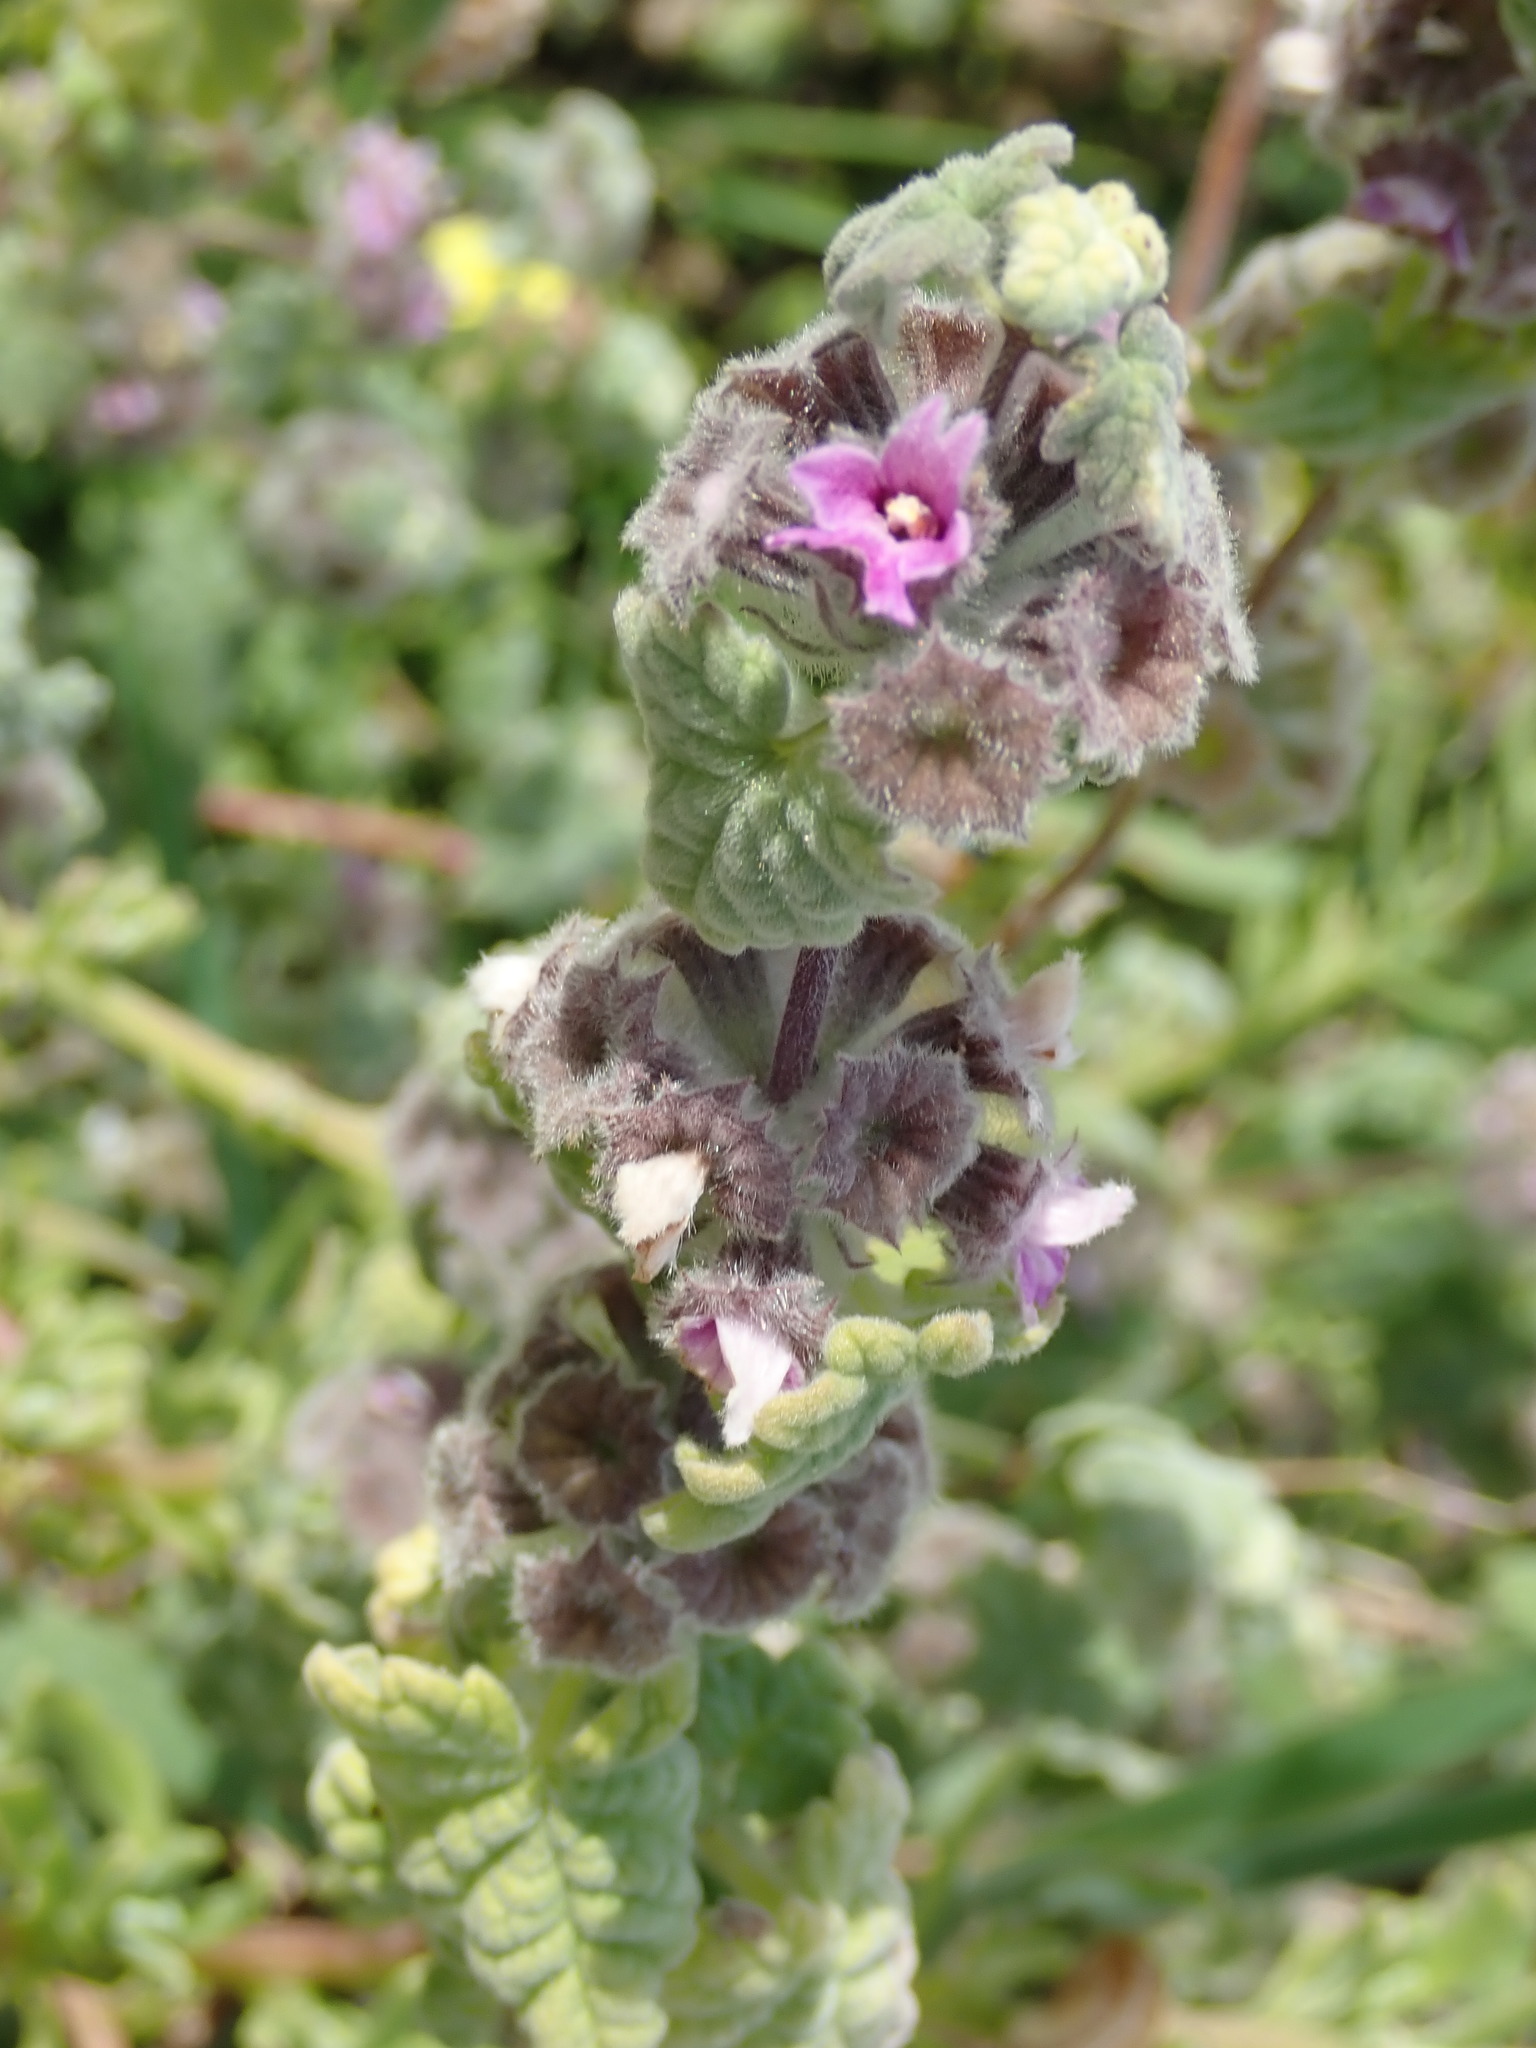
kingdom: Plantae
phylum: Tracheophyta
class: Magnoliopsida
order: Lamiales
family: Lamiaceae
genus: Pseudodictamnus
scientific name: Pseudodictamnus africanus
